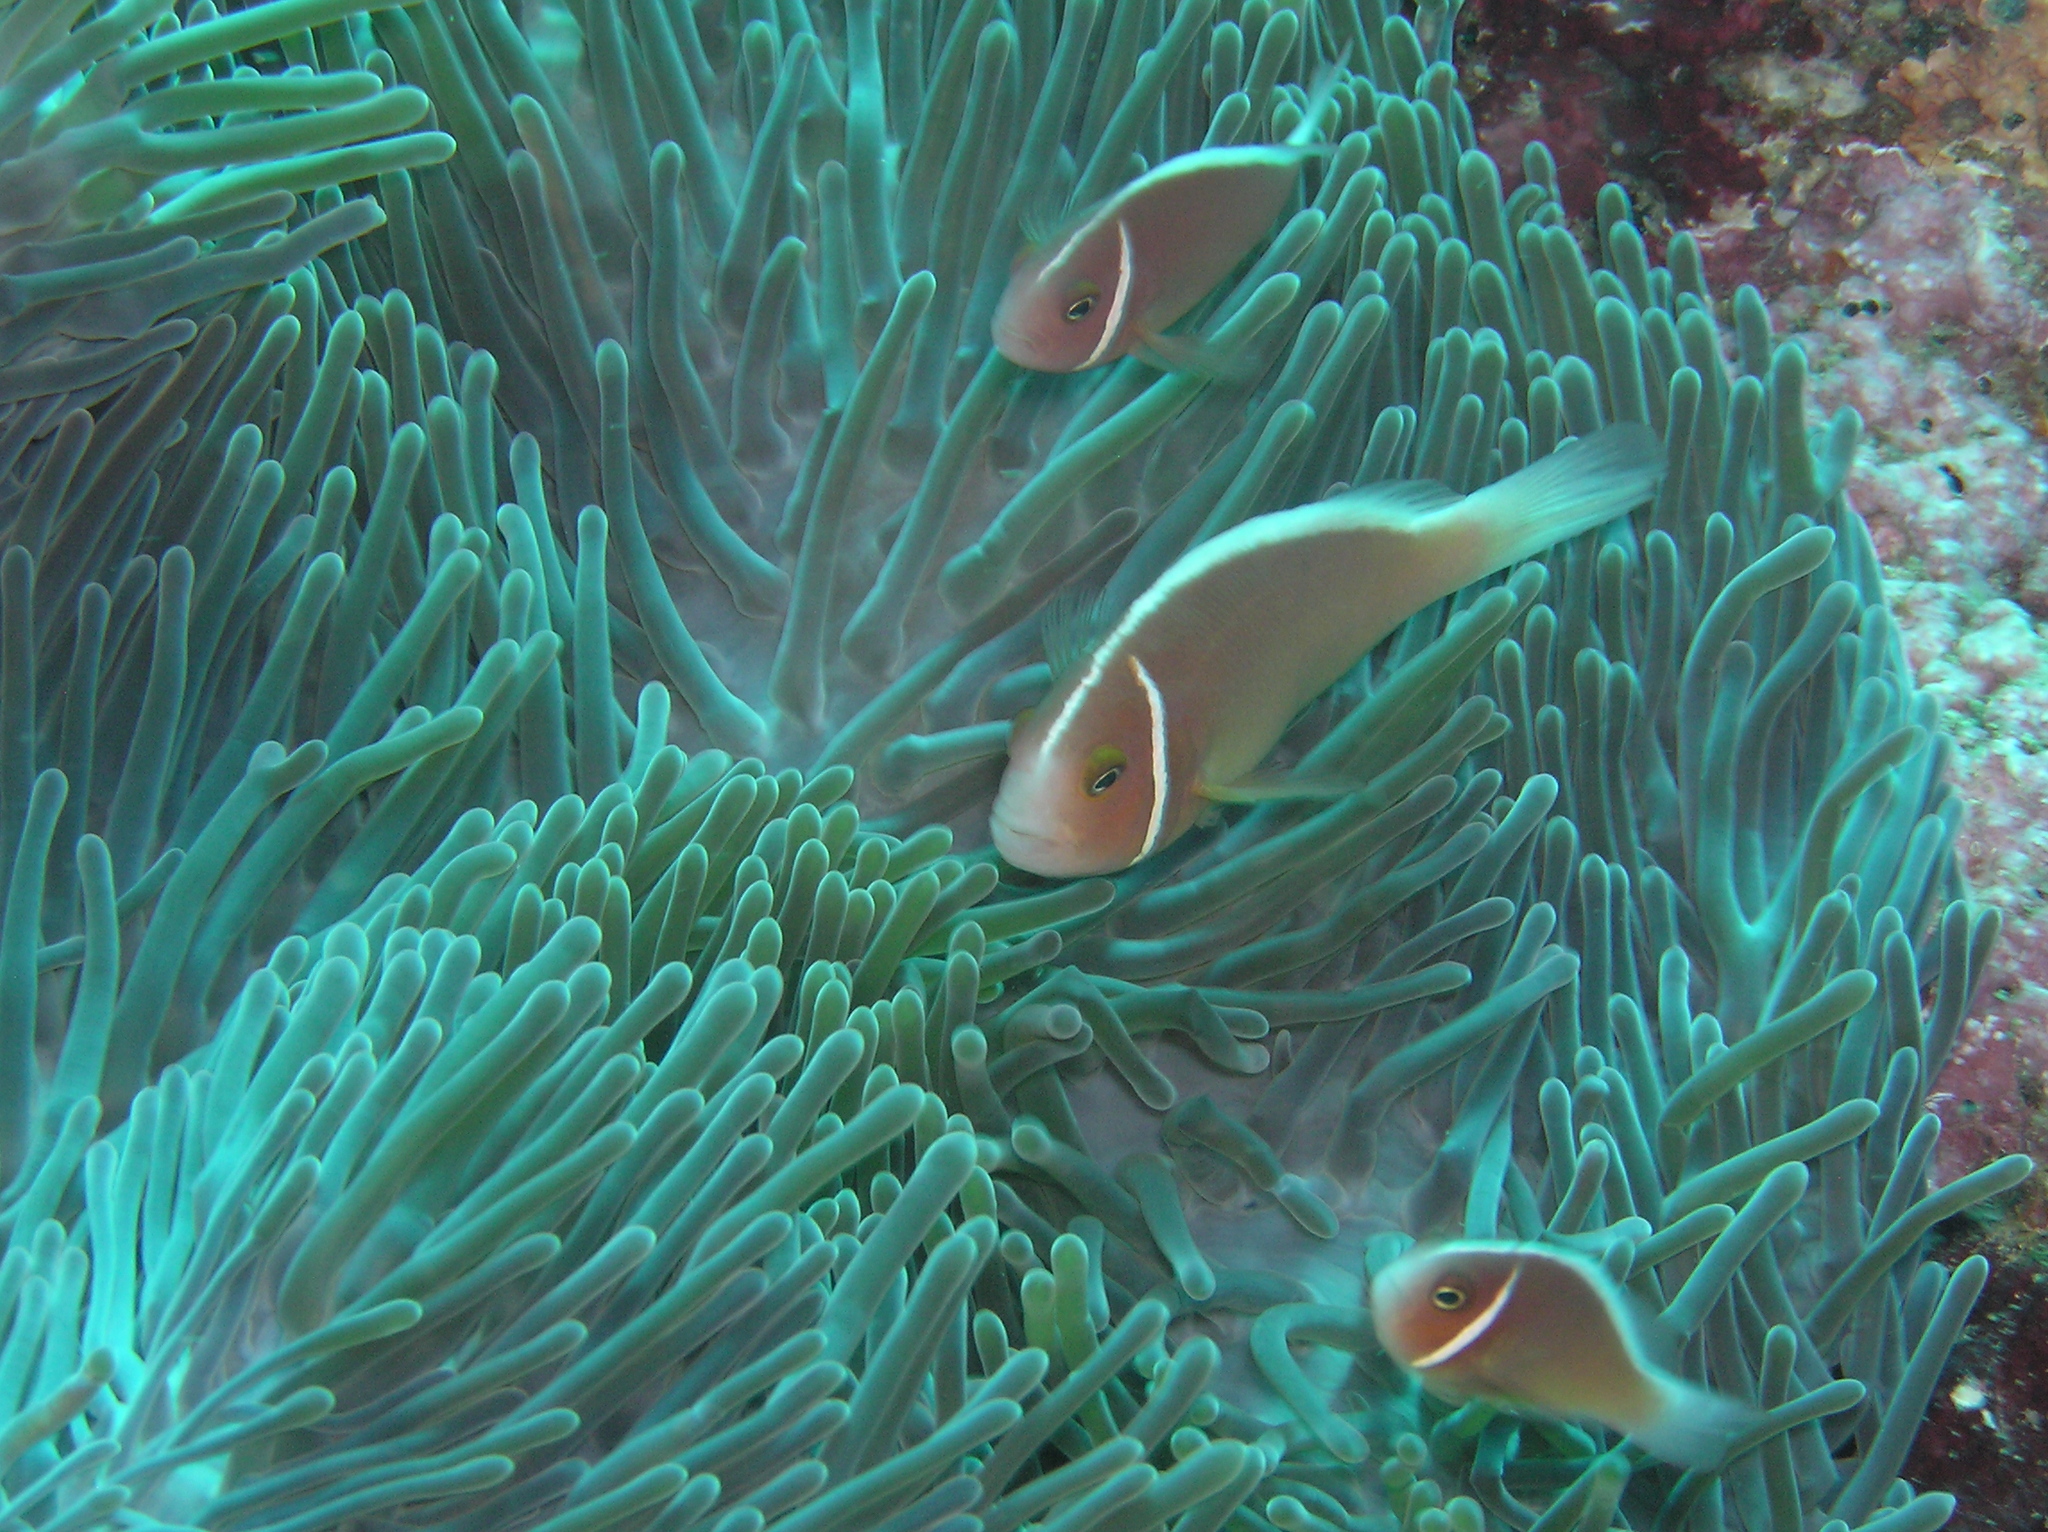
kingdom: Animalia
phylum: Chordata
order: Perciformes
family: Pomacentridae
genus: Amphiprion
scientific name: Amphiprion perideraion
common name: Pink anemonefish
